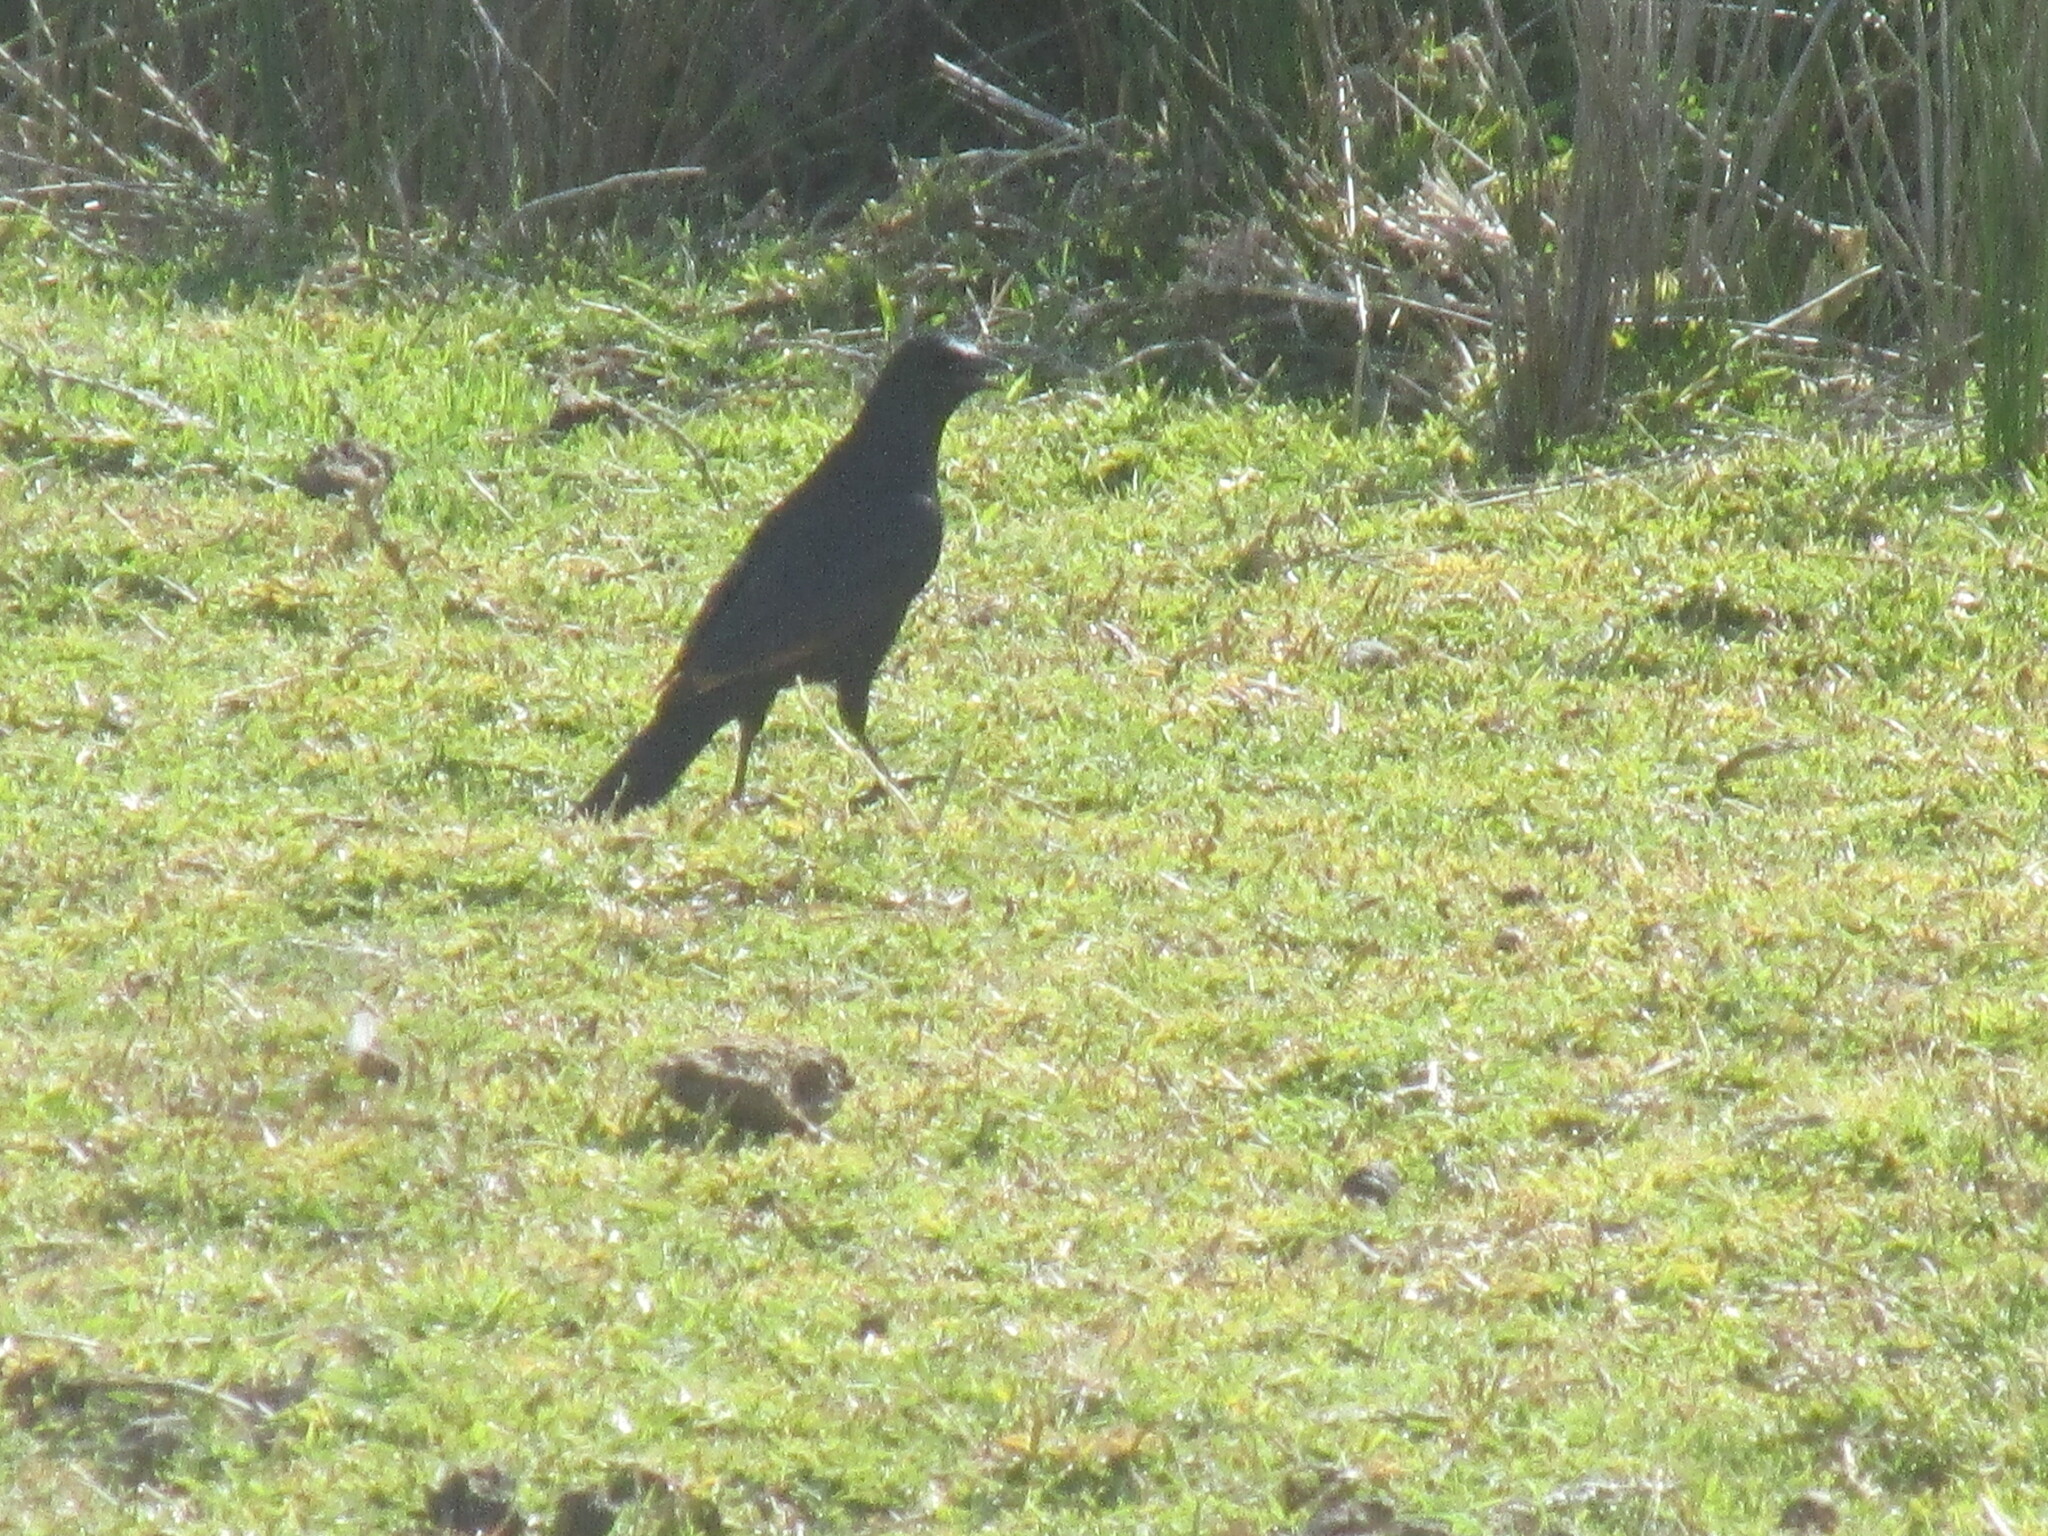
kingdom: Animalia
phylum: Chordata
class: Aves
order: Passeriformes
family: Sturnidae
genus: Onychognathus
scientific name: Onychognathus morio
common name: Red-winged starling
